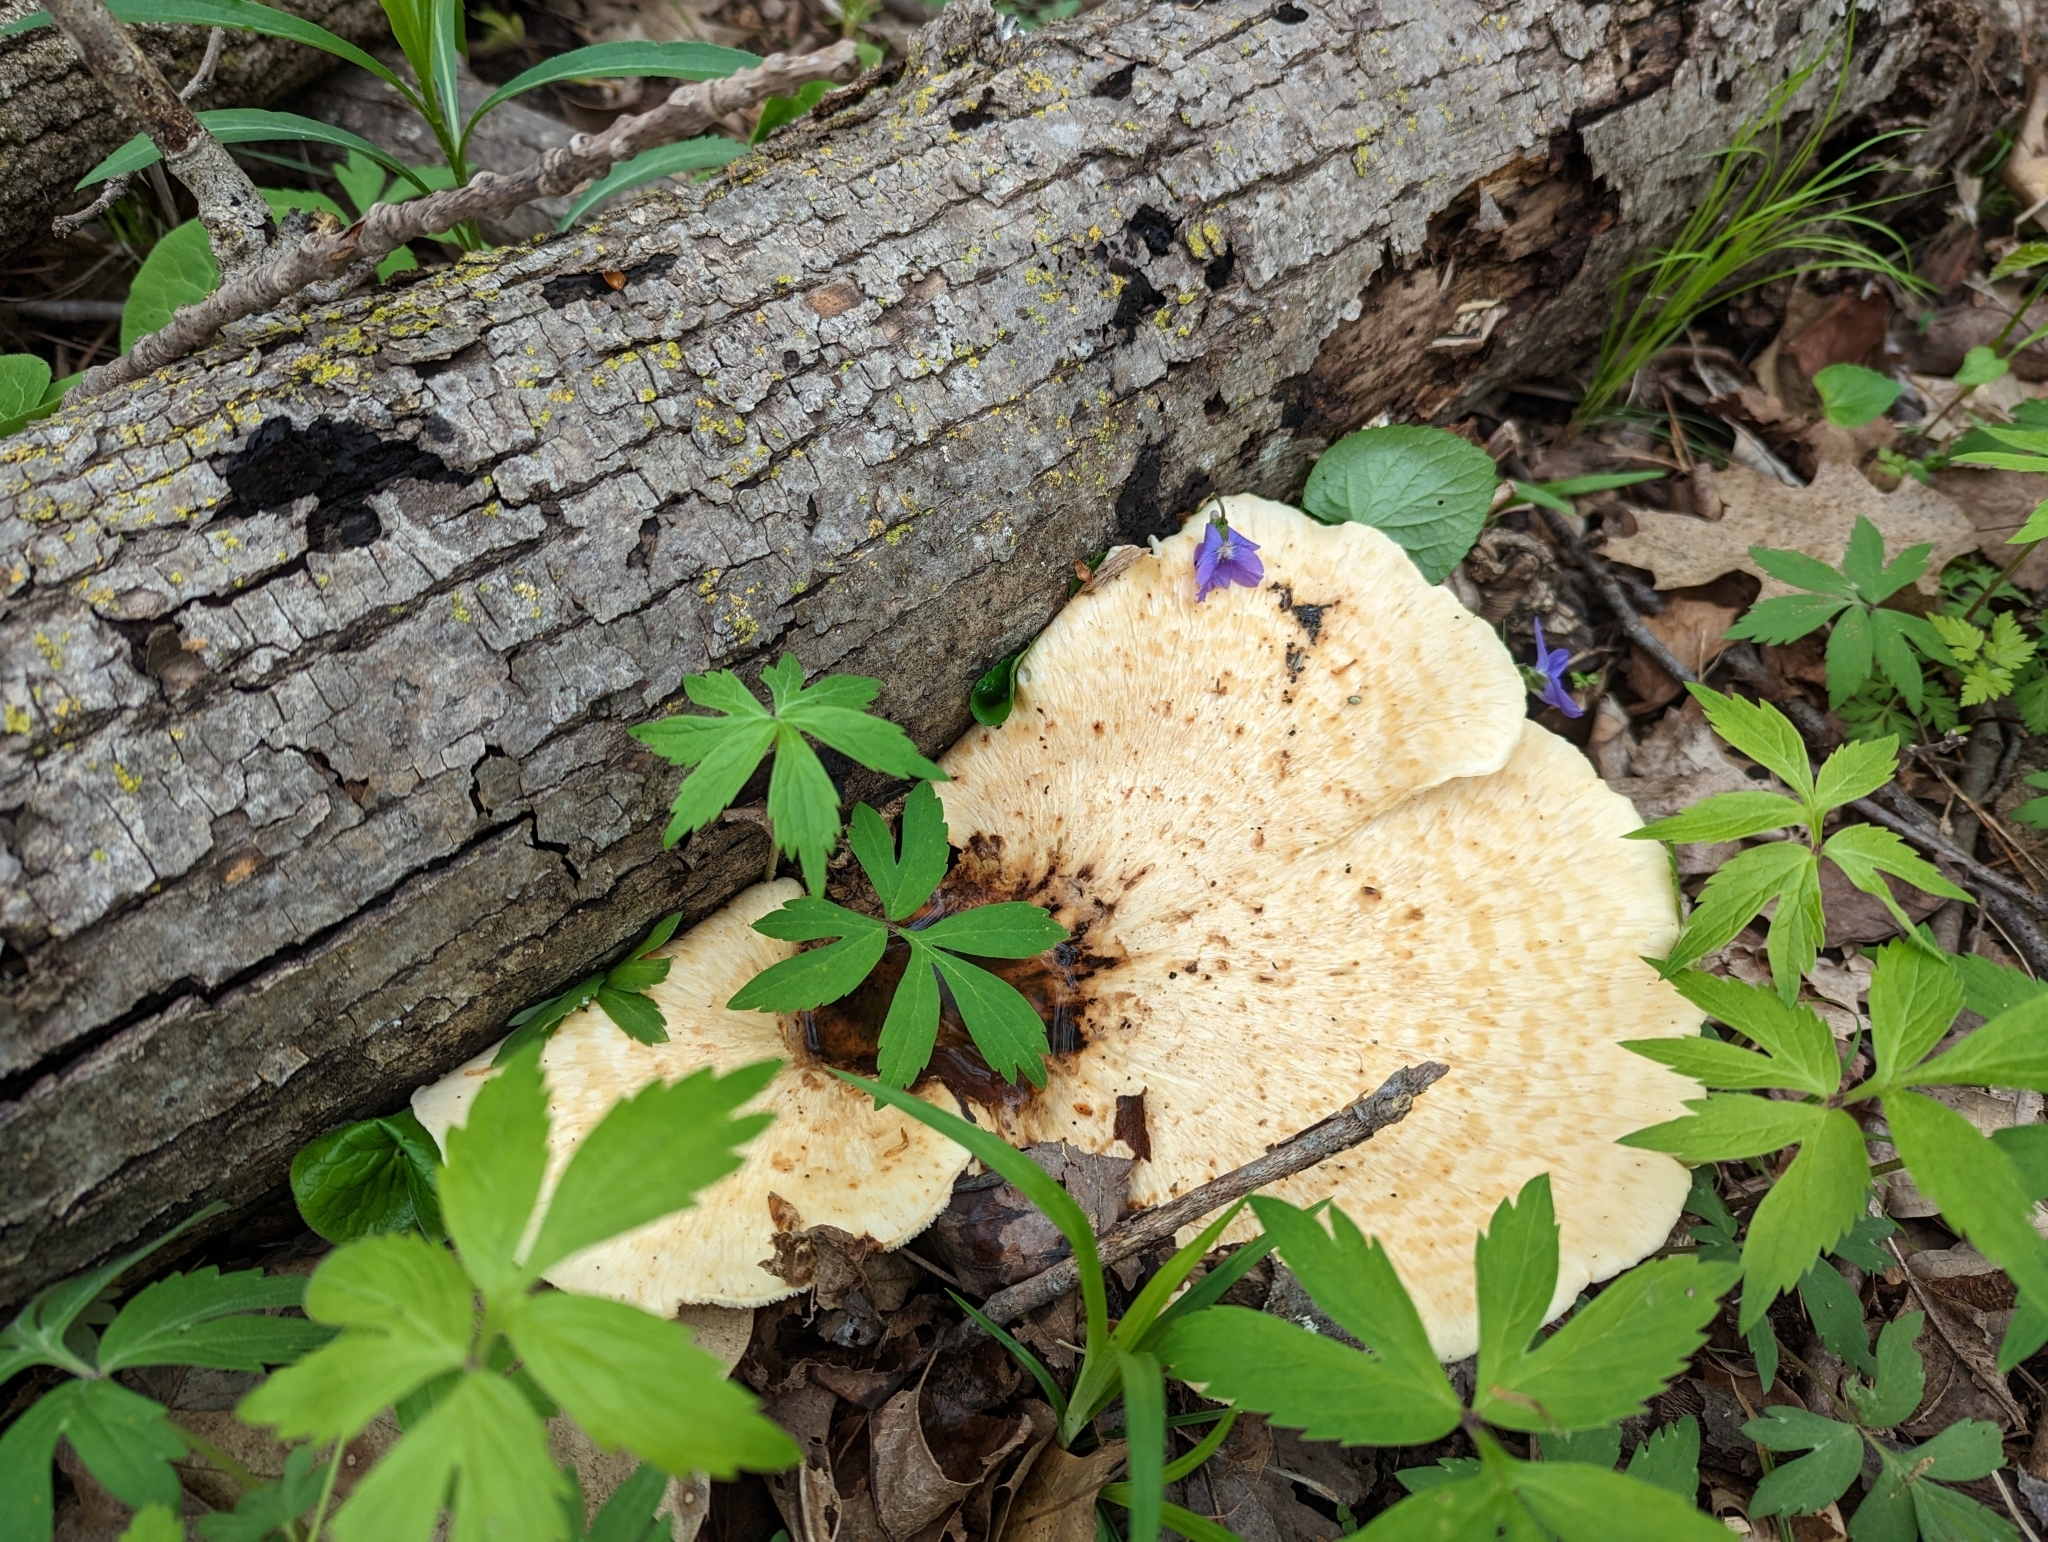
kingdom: Fungi
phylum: Basidiomycota
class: Agaricomycetes
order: Polyporales
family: Polyporaceae
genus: Cerioporus
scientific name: Cerioporus squamosus
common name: Dryad's saddle
